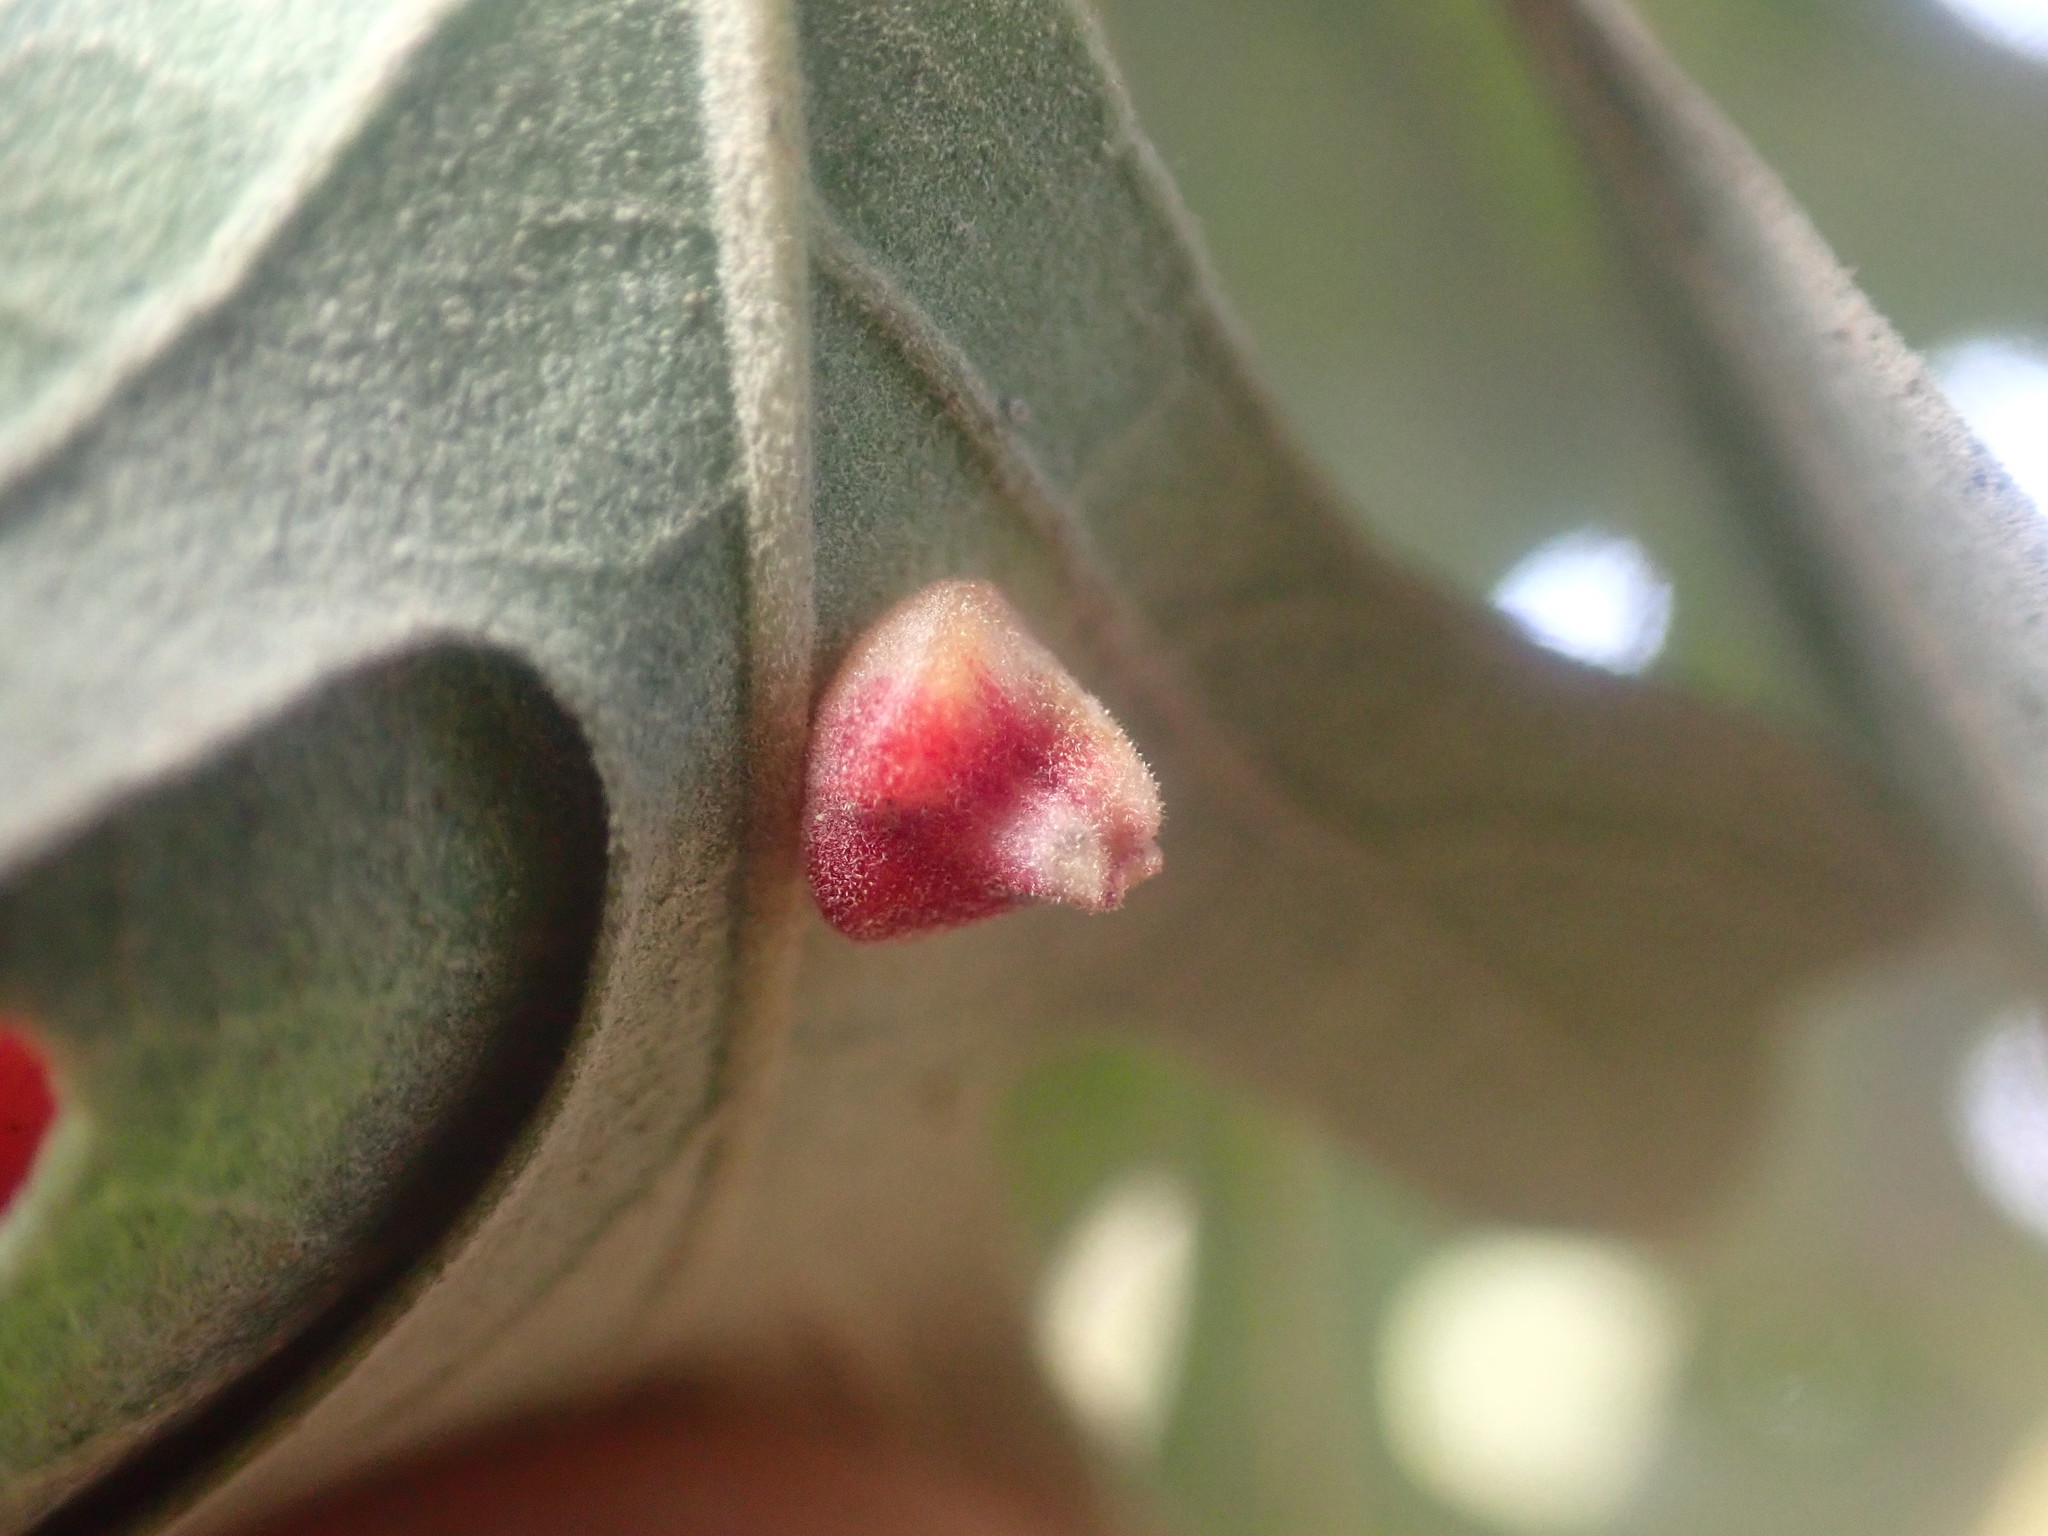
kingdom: Animalia
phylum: Arthropoda
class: Insecta
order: Hymenoptera
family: Cynipidae
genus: Andricus
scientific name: Andricus
